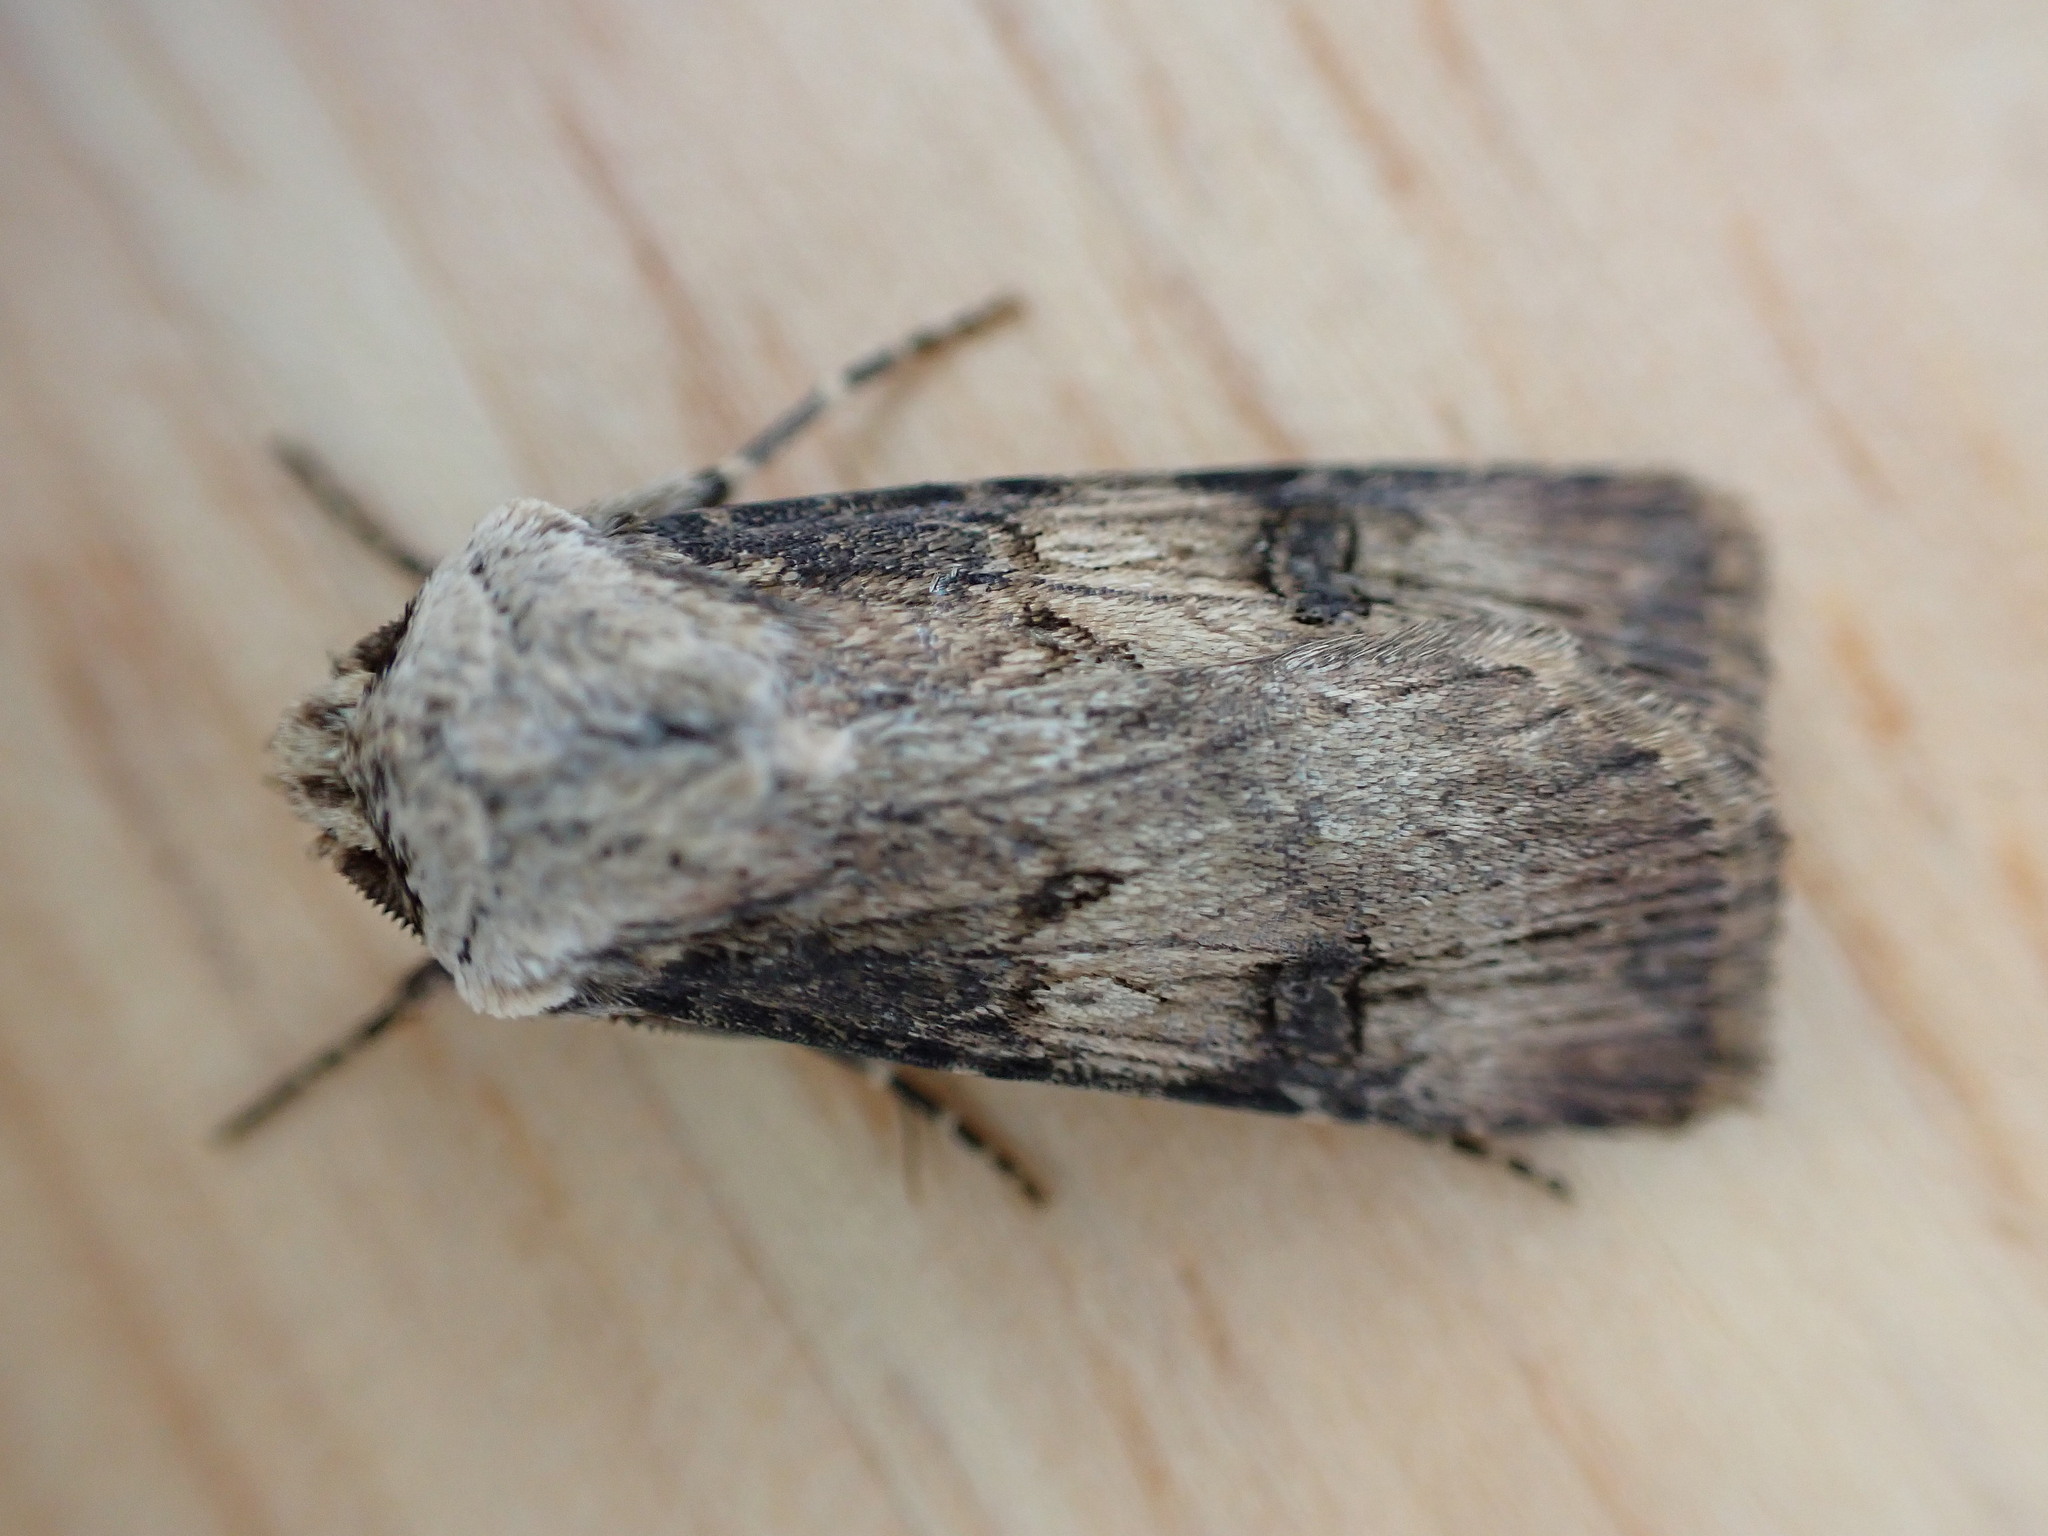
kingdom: Animalia
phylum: Arthropoda
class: Insecta
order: Lepidoptera
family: Noctuidae
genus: Agrotis
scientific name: Agrotis puta
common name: Shuttle-shaped dart
